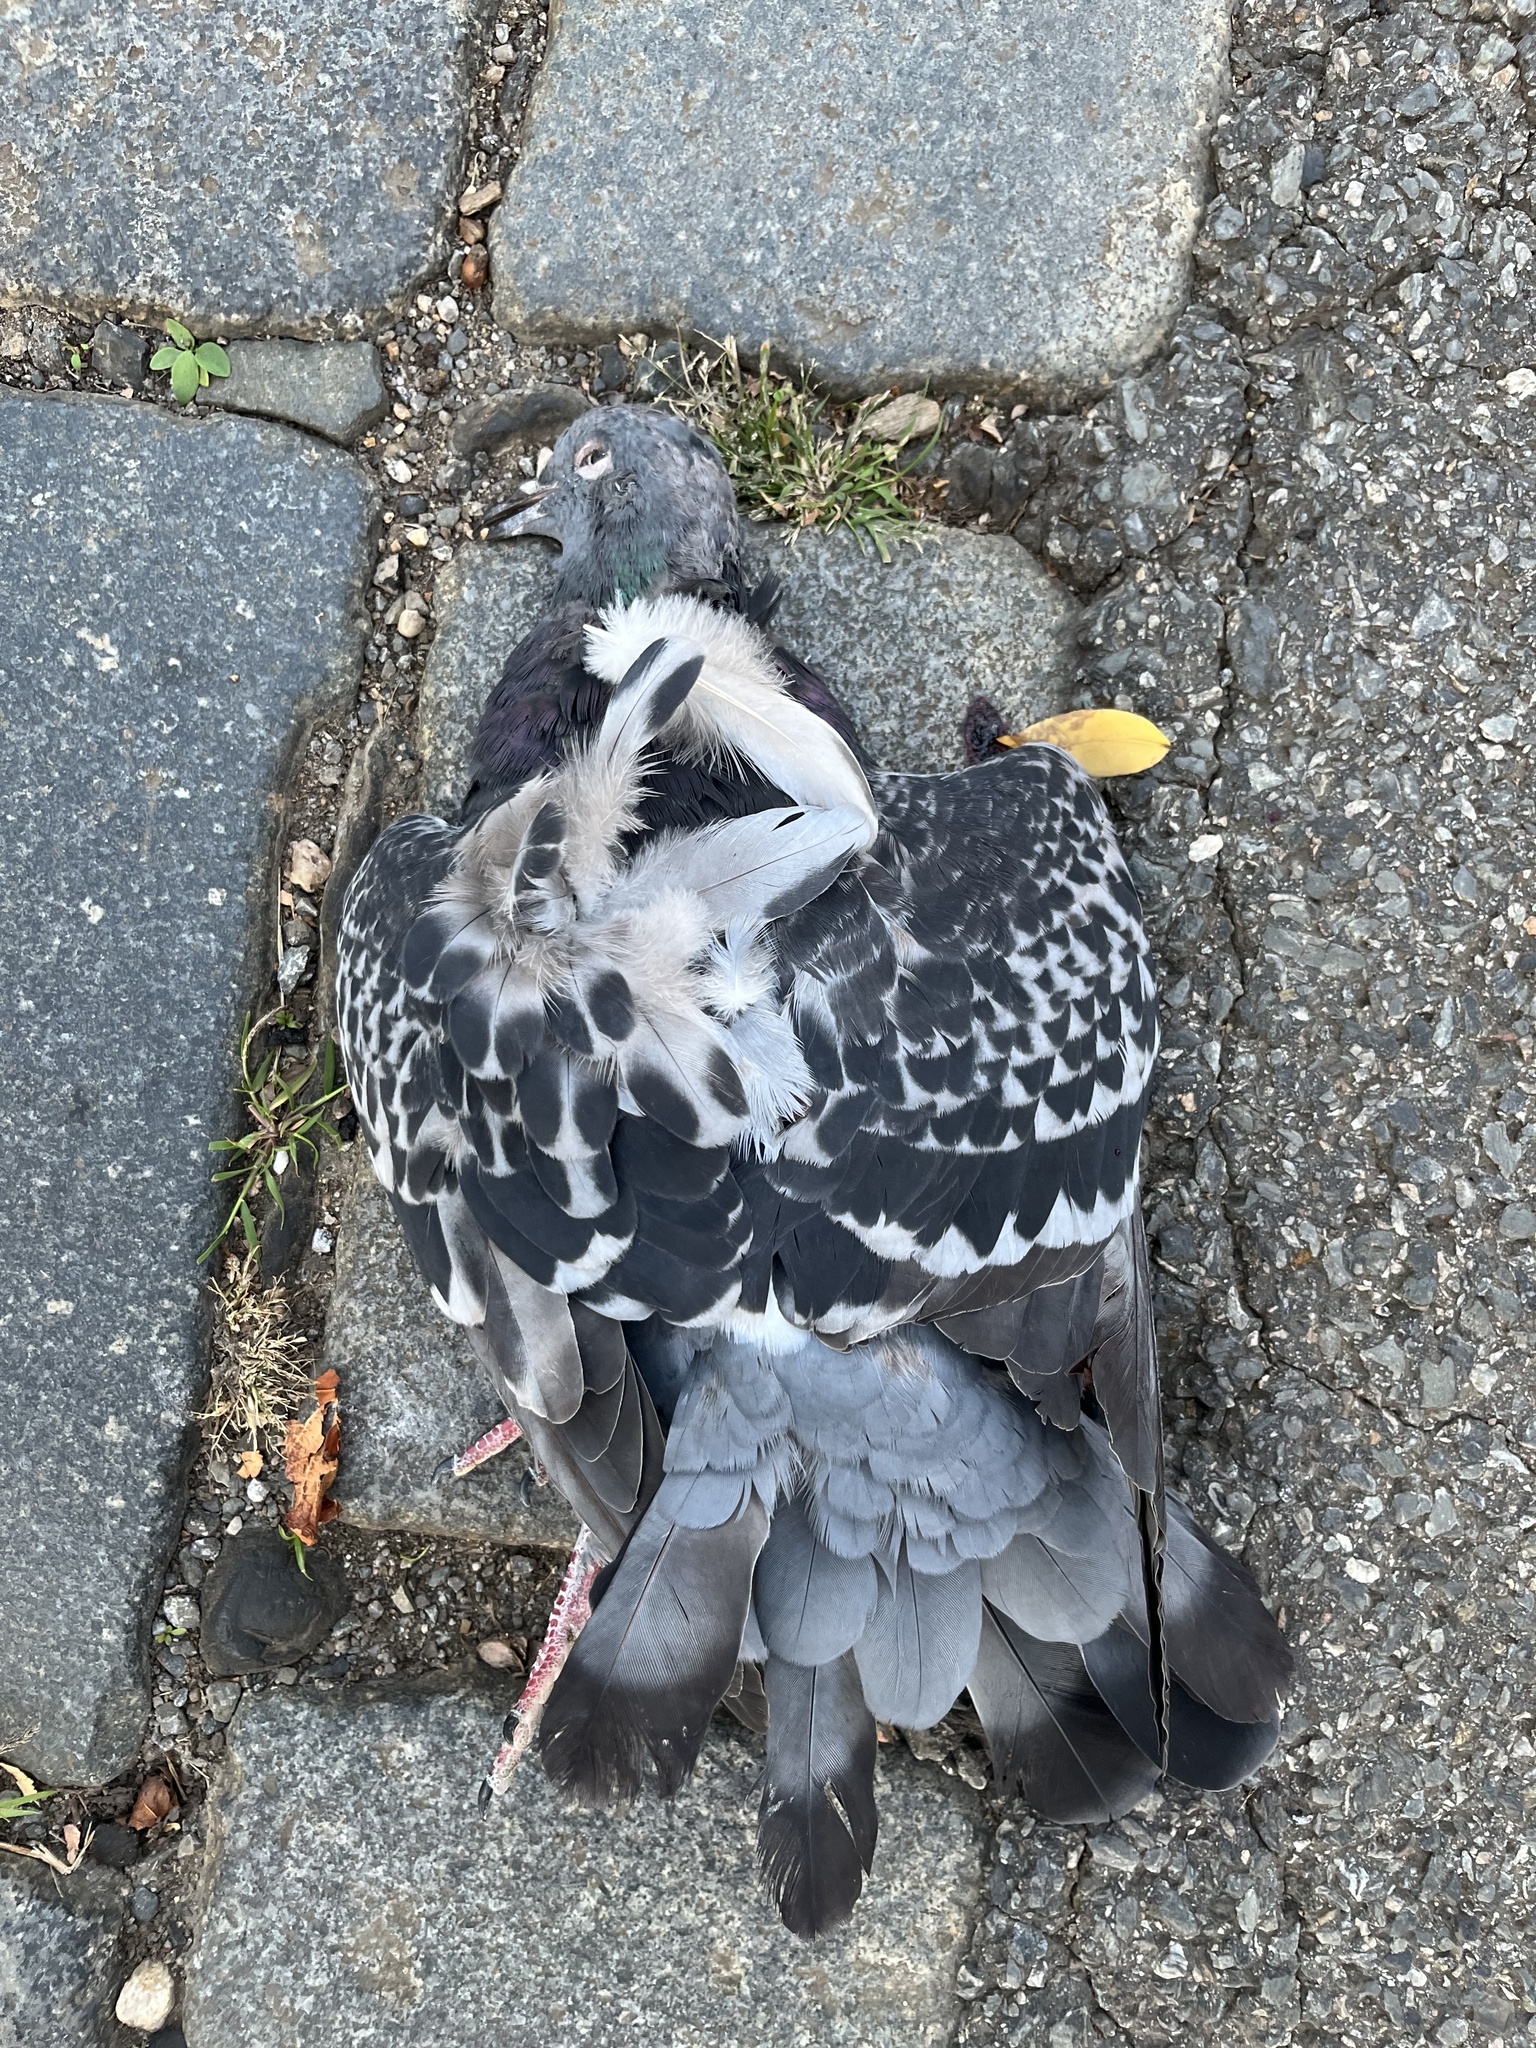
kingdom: Animalia
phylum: Chordata
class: Aves
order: Columbiformes
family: Columbidae
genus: Columba
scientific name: Columba livia
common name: Rock pigeon
